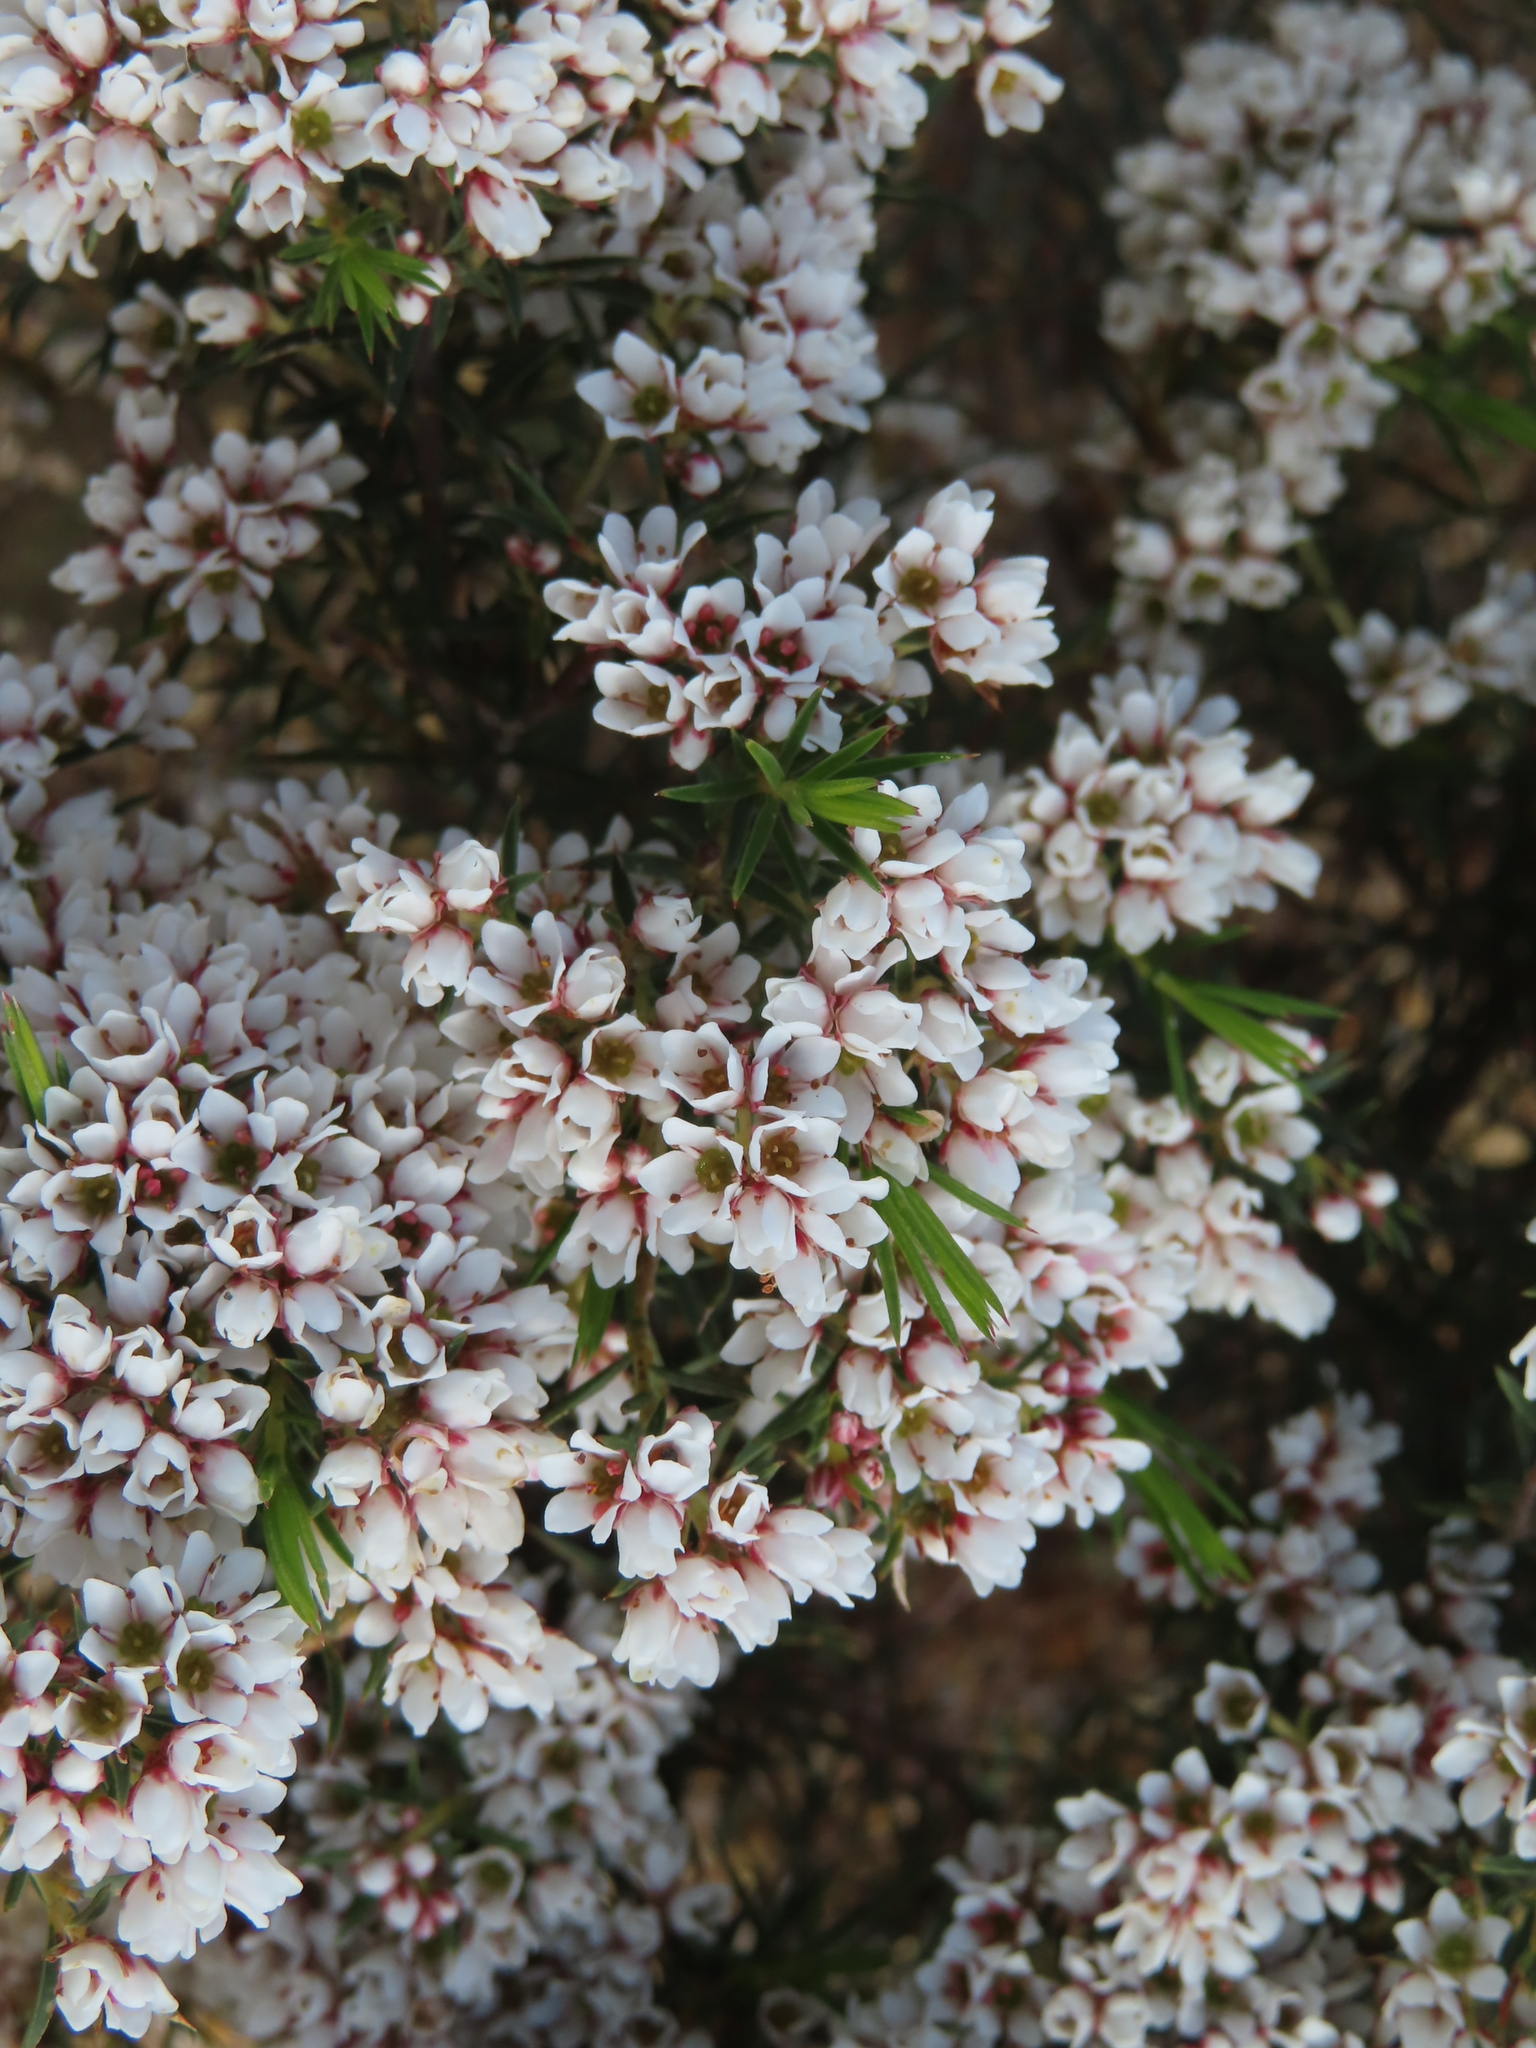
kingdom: Plantae
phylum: Tracheophyta
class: Magnoliopsida
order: Sapindales
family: Rutaceae
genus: Diosma
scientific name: Diosma hirsuta
